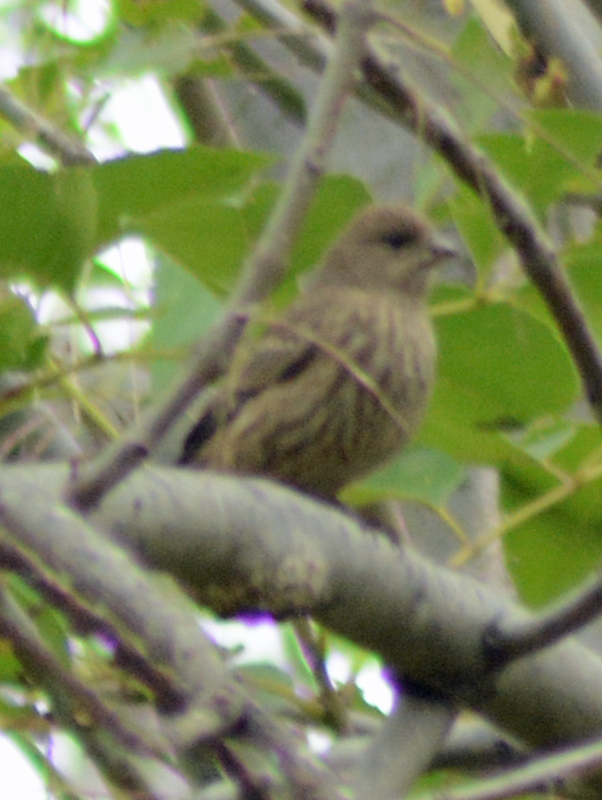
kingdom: Animalia
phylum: Chordata
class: Aves
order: Passeriformes
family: Fringillidae
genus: Haemorhous
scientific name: Haemorhous mexicanus
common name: House finch
